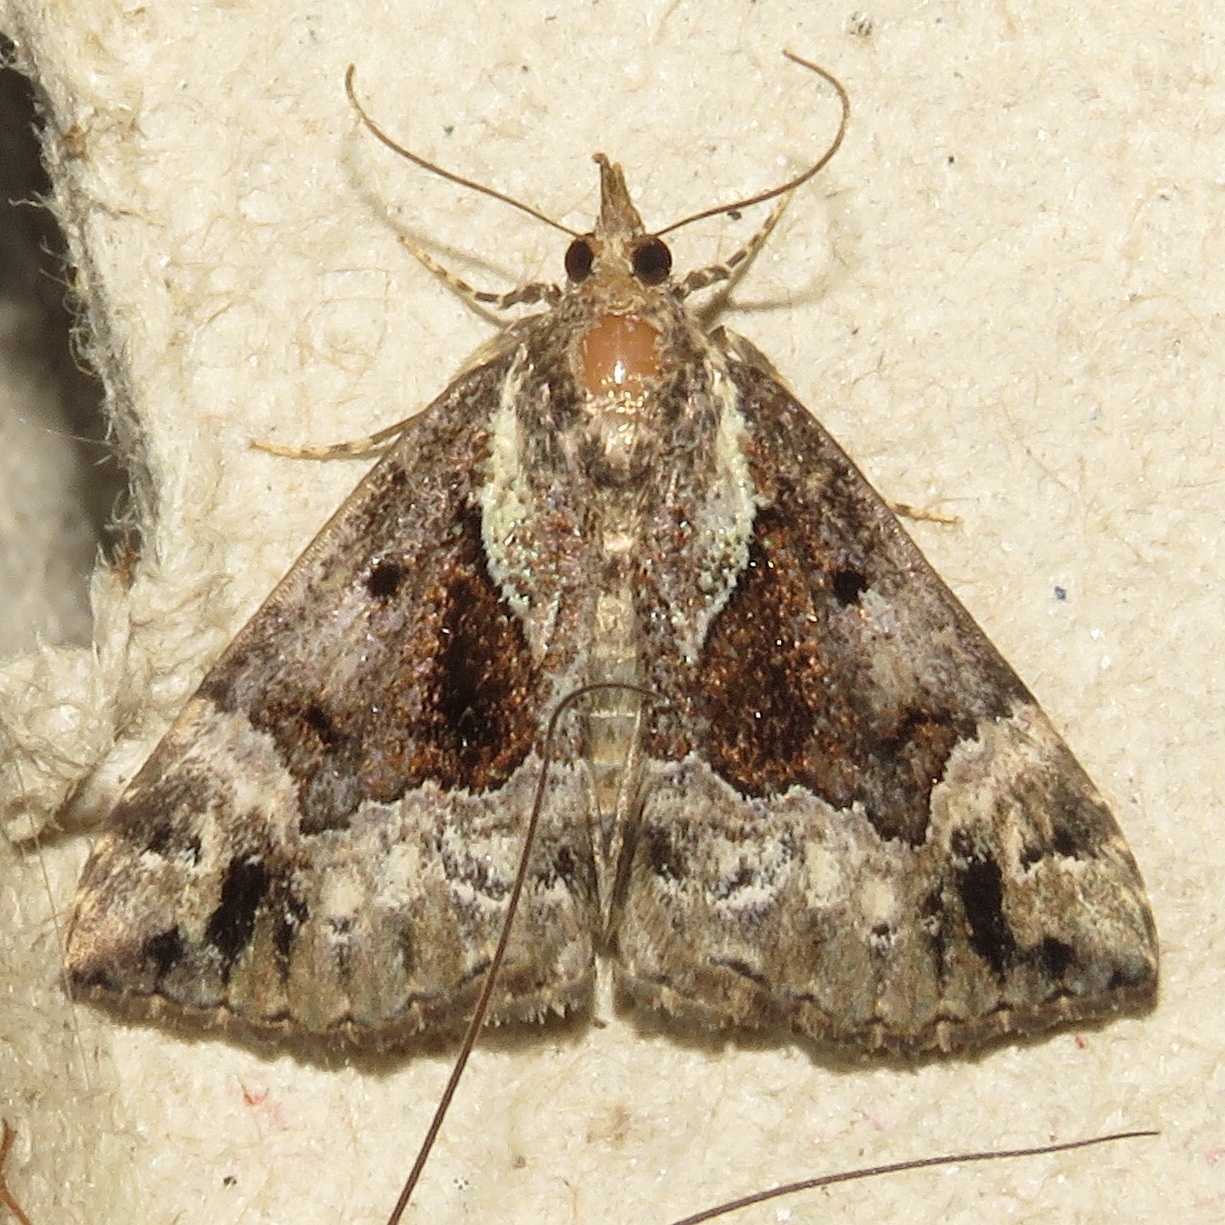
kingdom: Animalia
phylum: Arthropoda
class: Insecta
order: Lepidoptera
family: Erebidae
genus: Hypena
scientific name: Hypena palparia
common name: Mottled bomolocha moth
